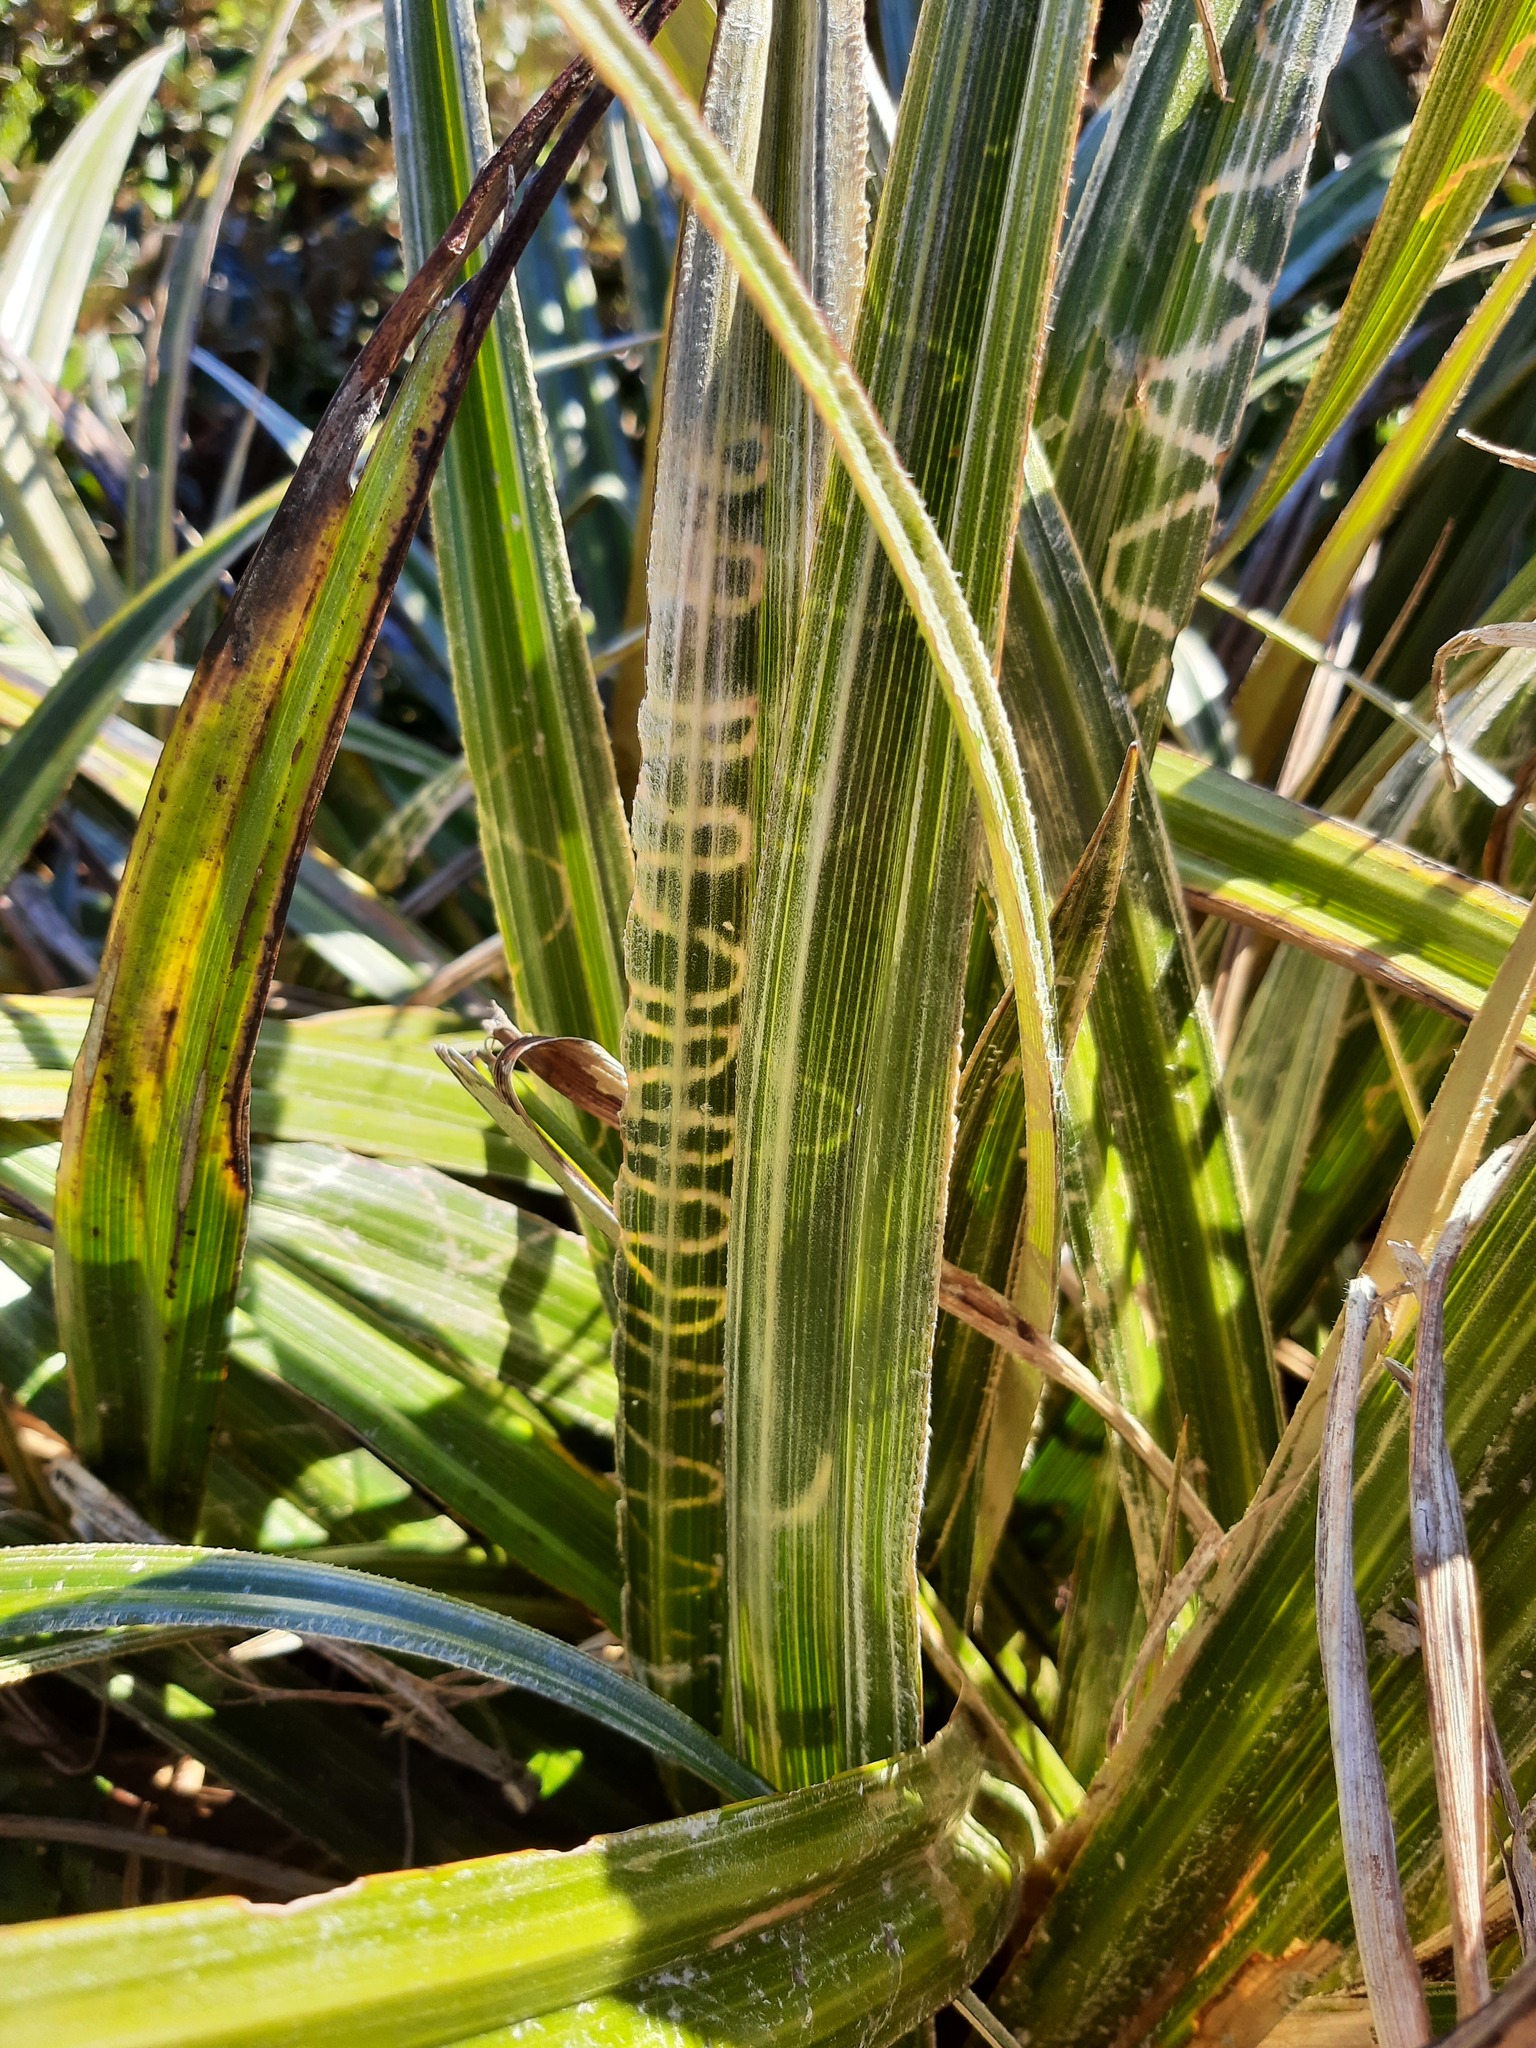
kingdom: Animalia
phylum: Arthropoda
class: Insecta
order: Lepidoptera
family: Plutellidae
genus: Charixena
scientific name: Charixena iridoxa
